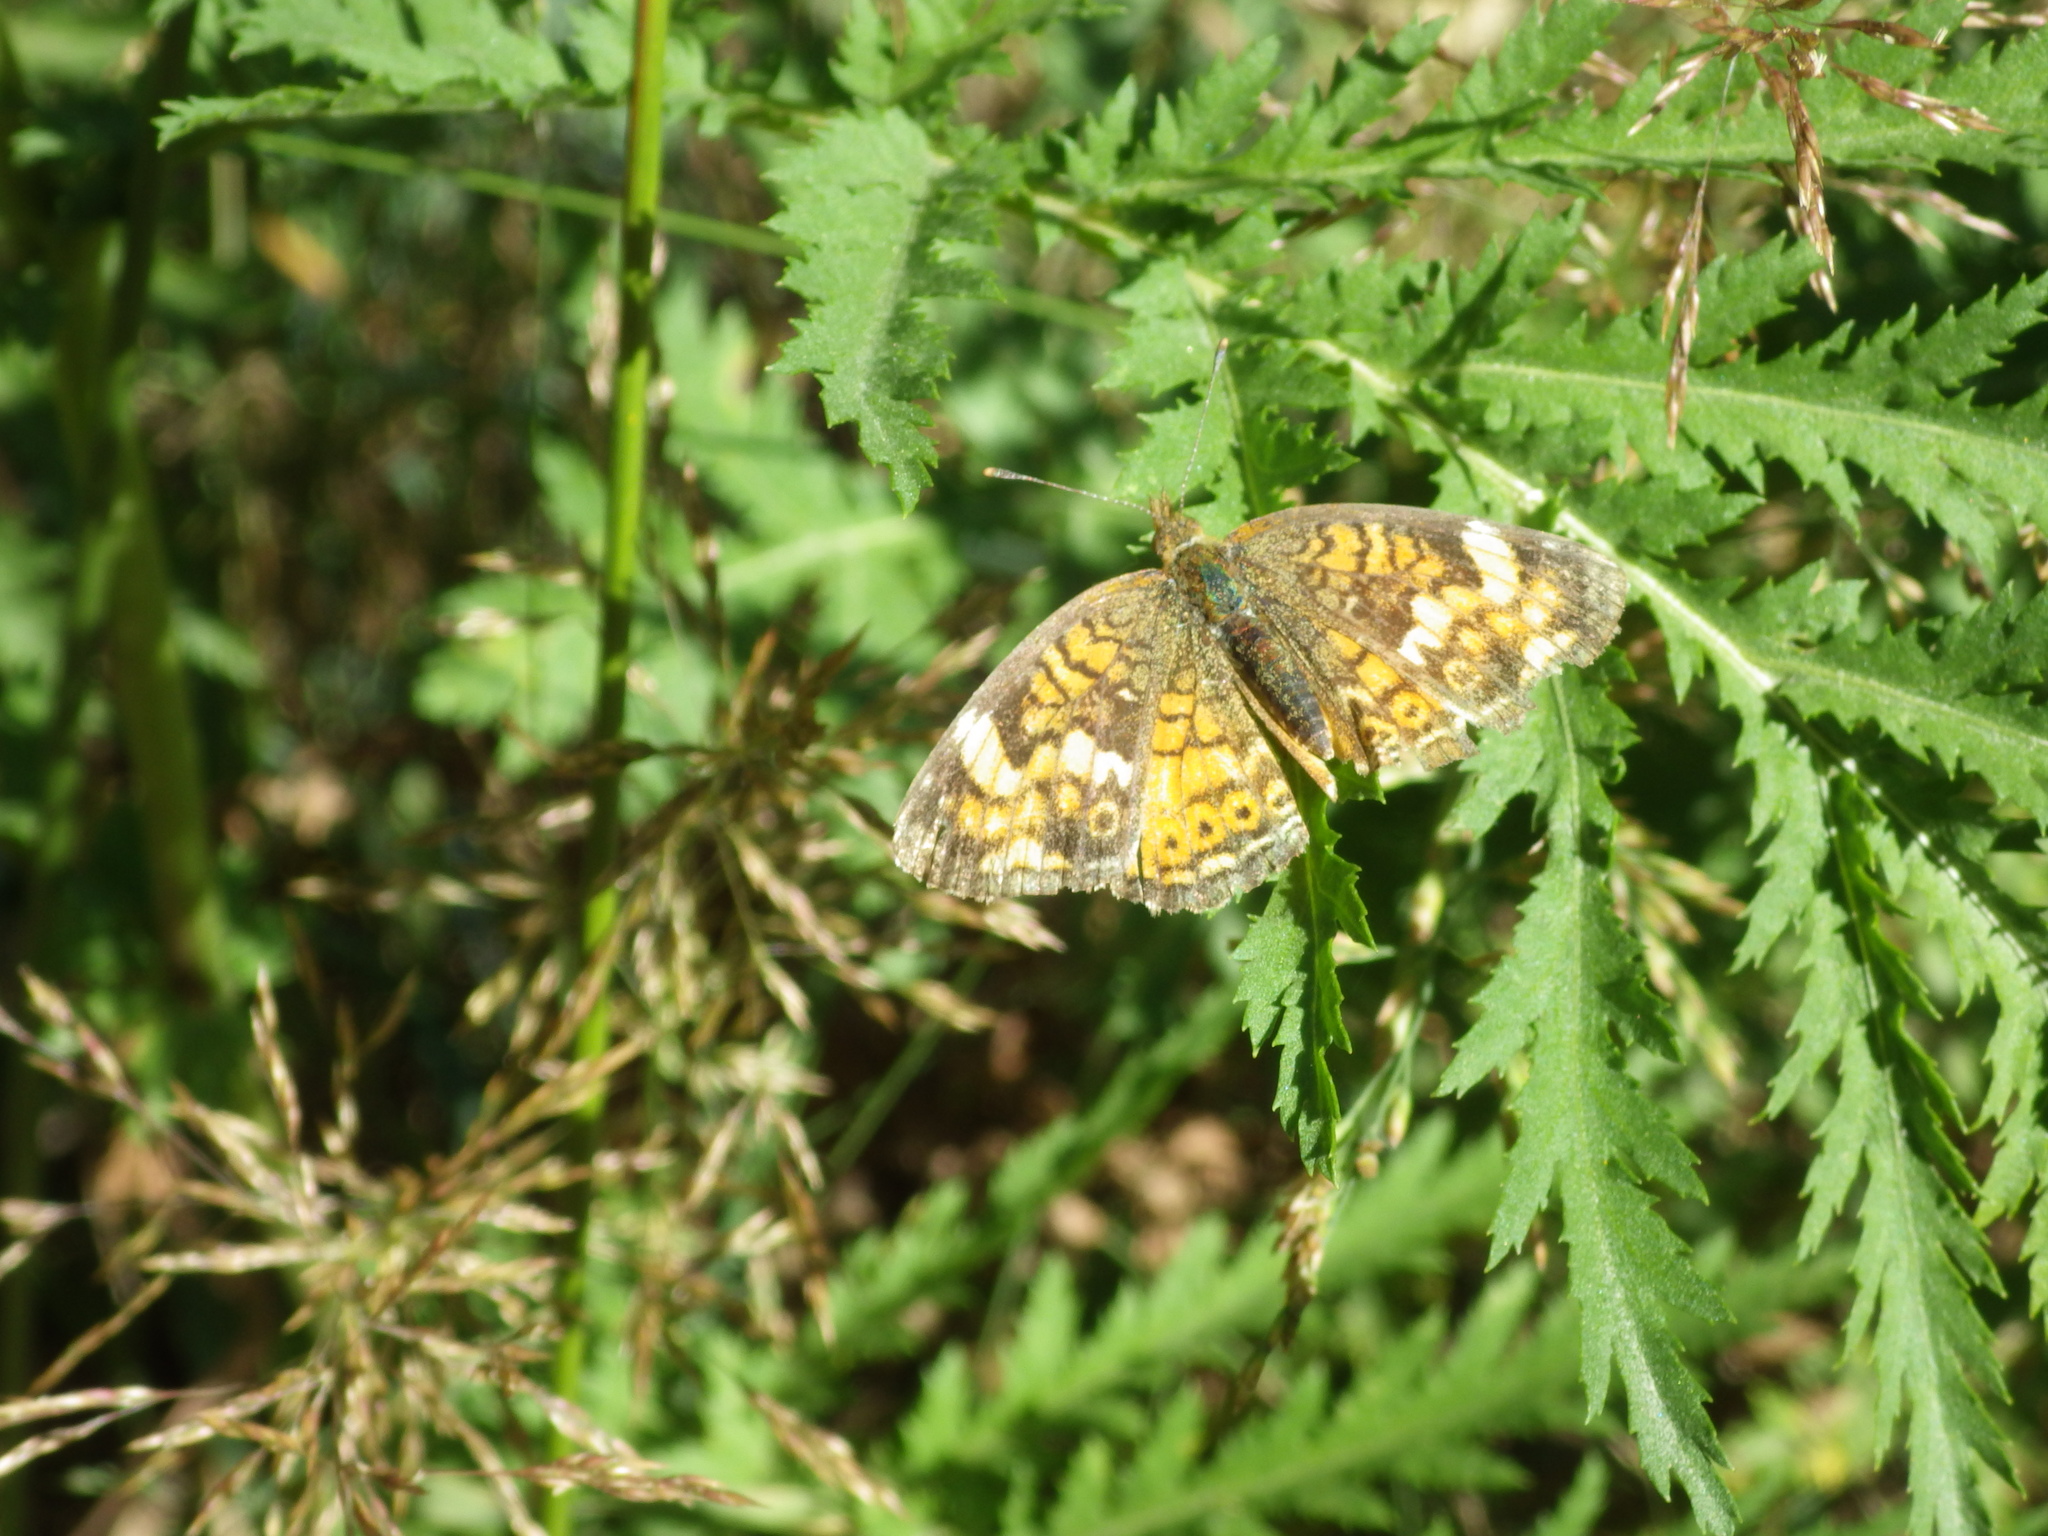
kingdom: Animalia
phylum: Arthropoda
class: Insecta
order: Lepidoptera
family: Nymphalidae
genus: Phyciodes
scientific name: Phyciodes tharos
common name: Pearl crescent
